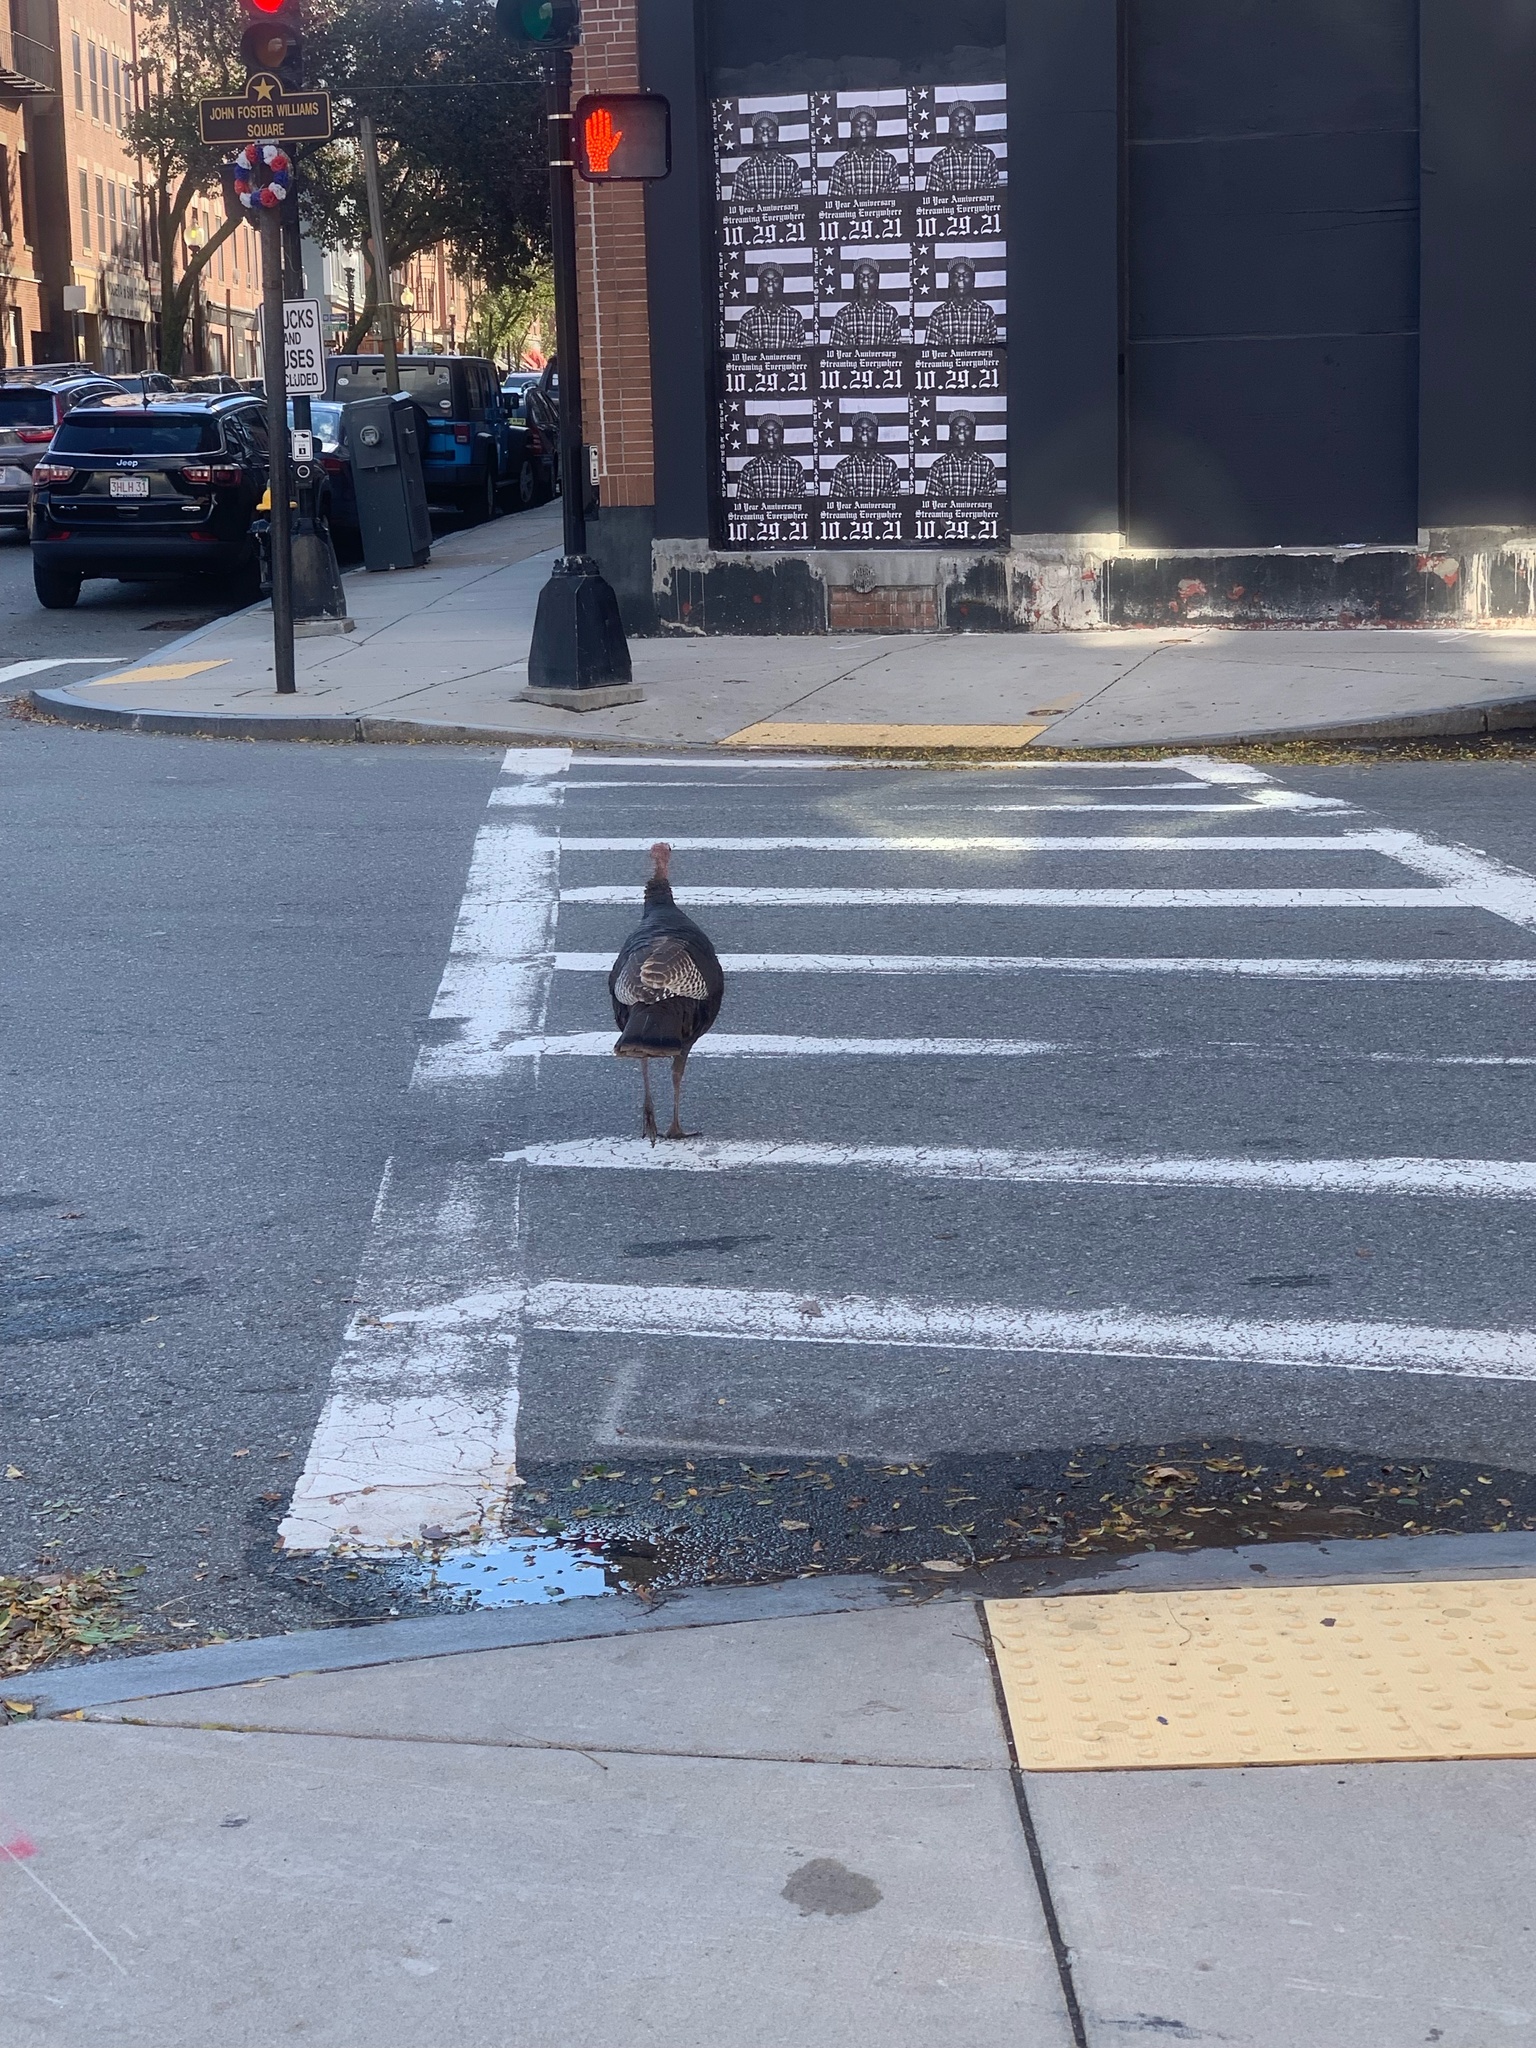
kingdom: Animalia
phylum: Chordata
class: Aves
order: Galliformes
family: Phasianidae
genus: Meleagris
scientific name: Meleagris gallopavo
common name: Wild turkey
